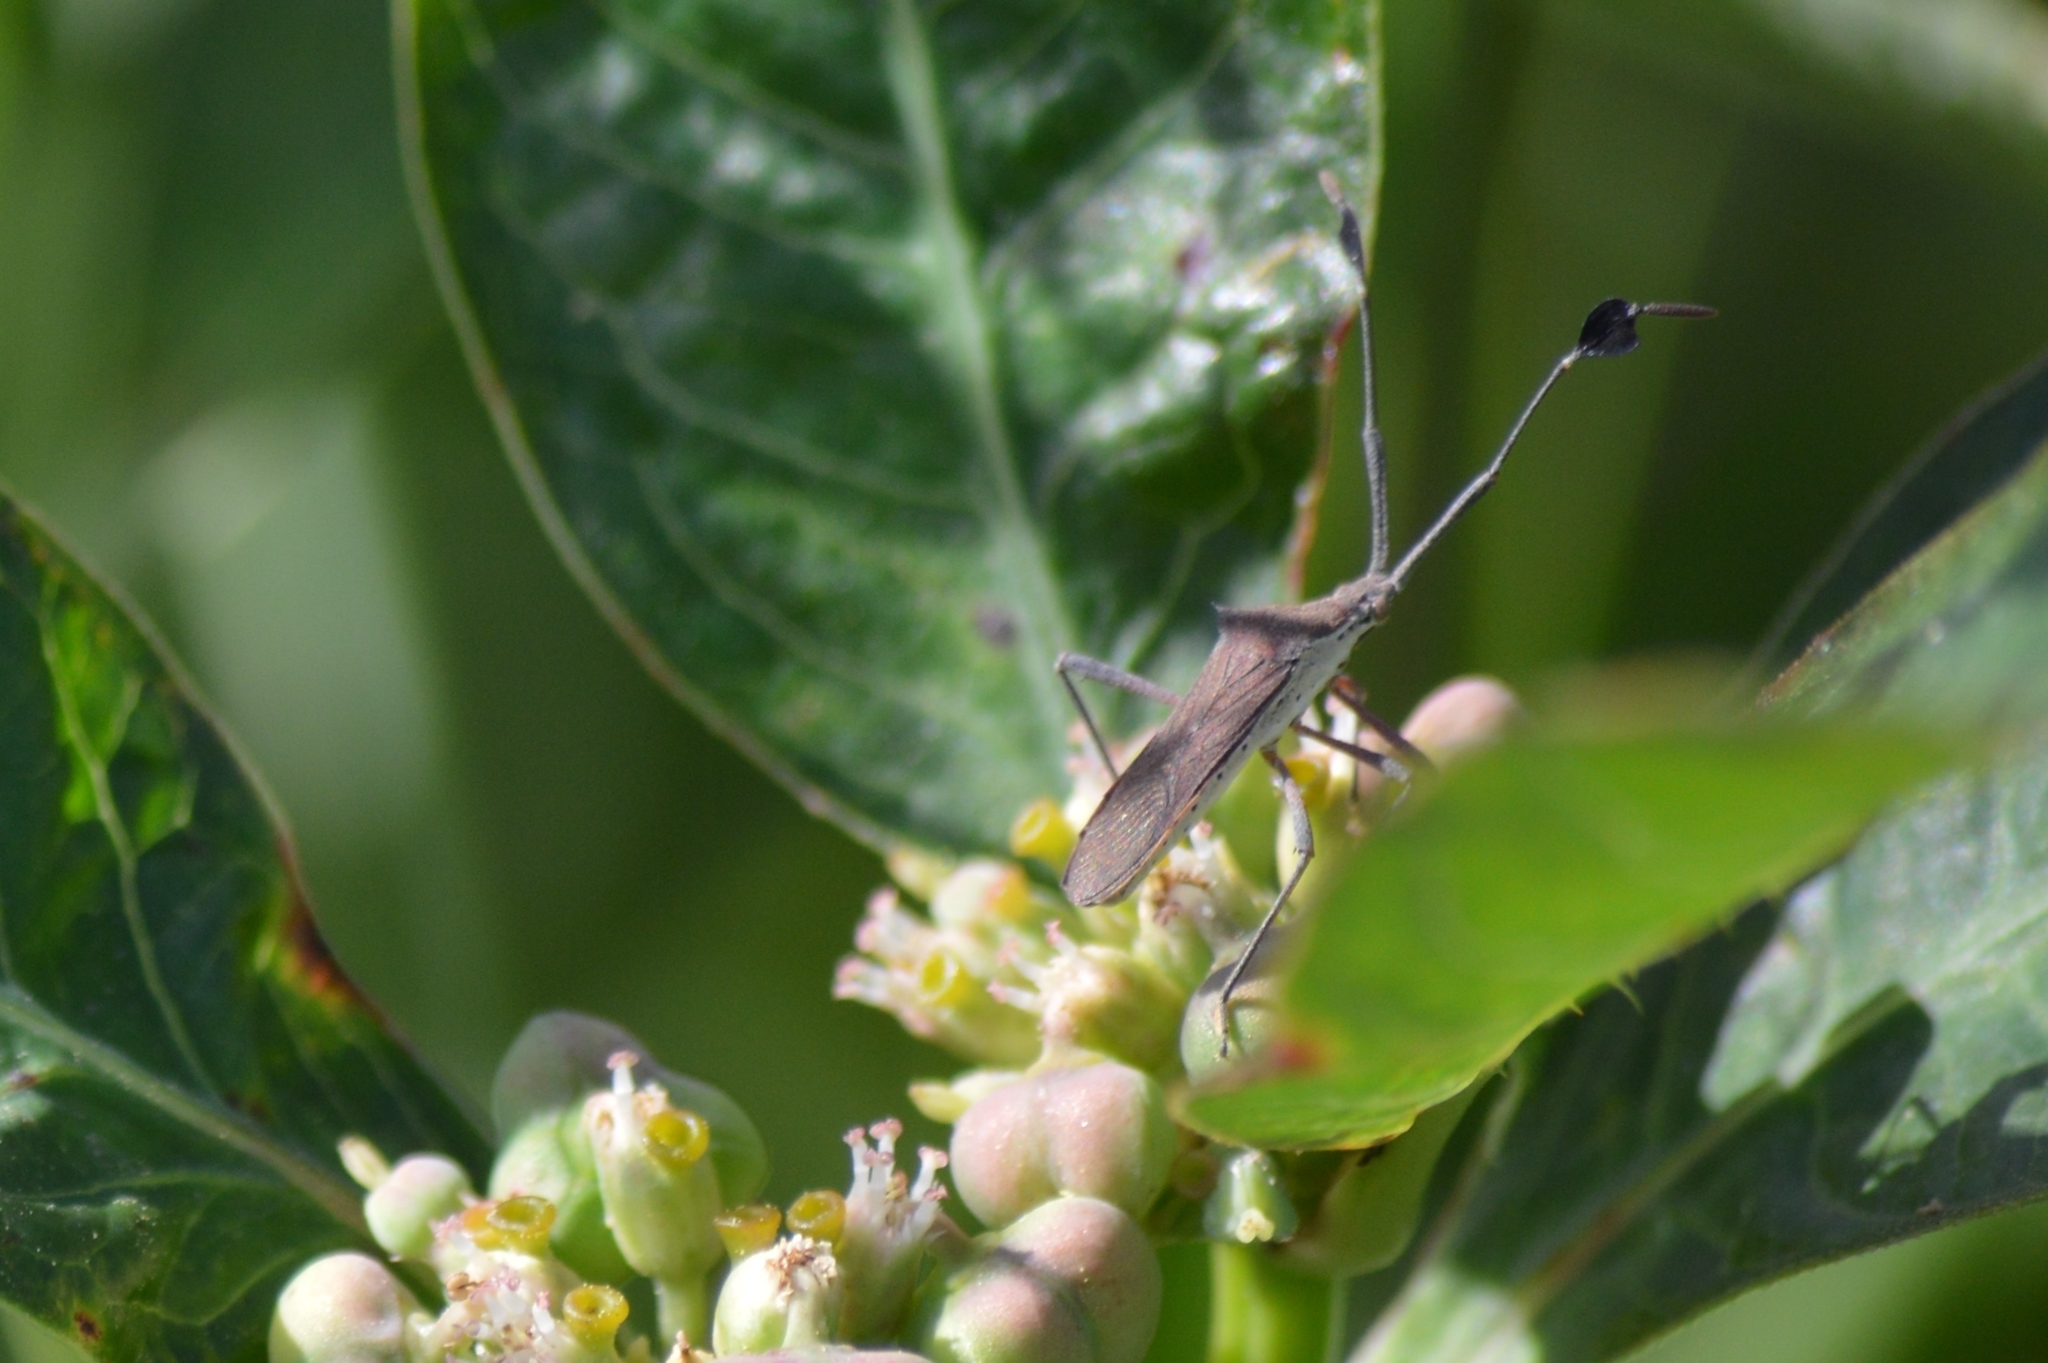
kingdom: Animalia
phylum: Arthropoda
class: Insecta
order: Hemiptera
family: Coreidae
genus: Chariesterus
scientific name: Chariesterus armatus
